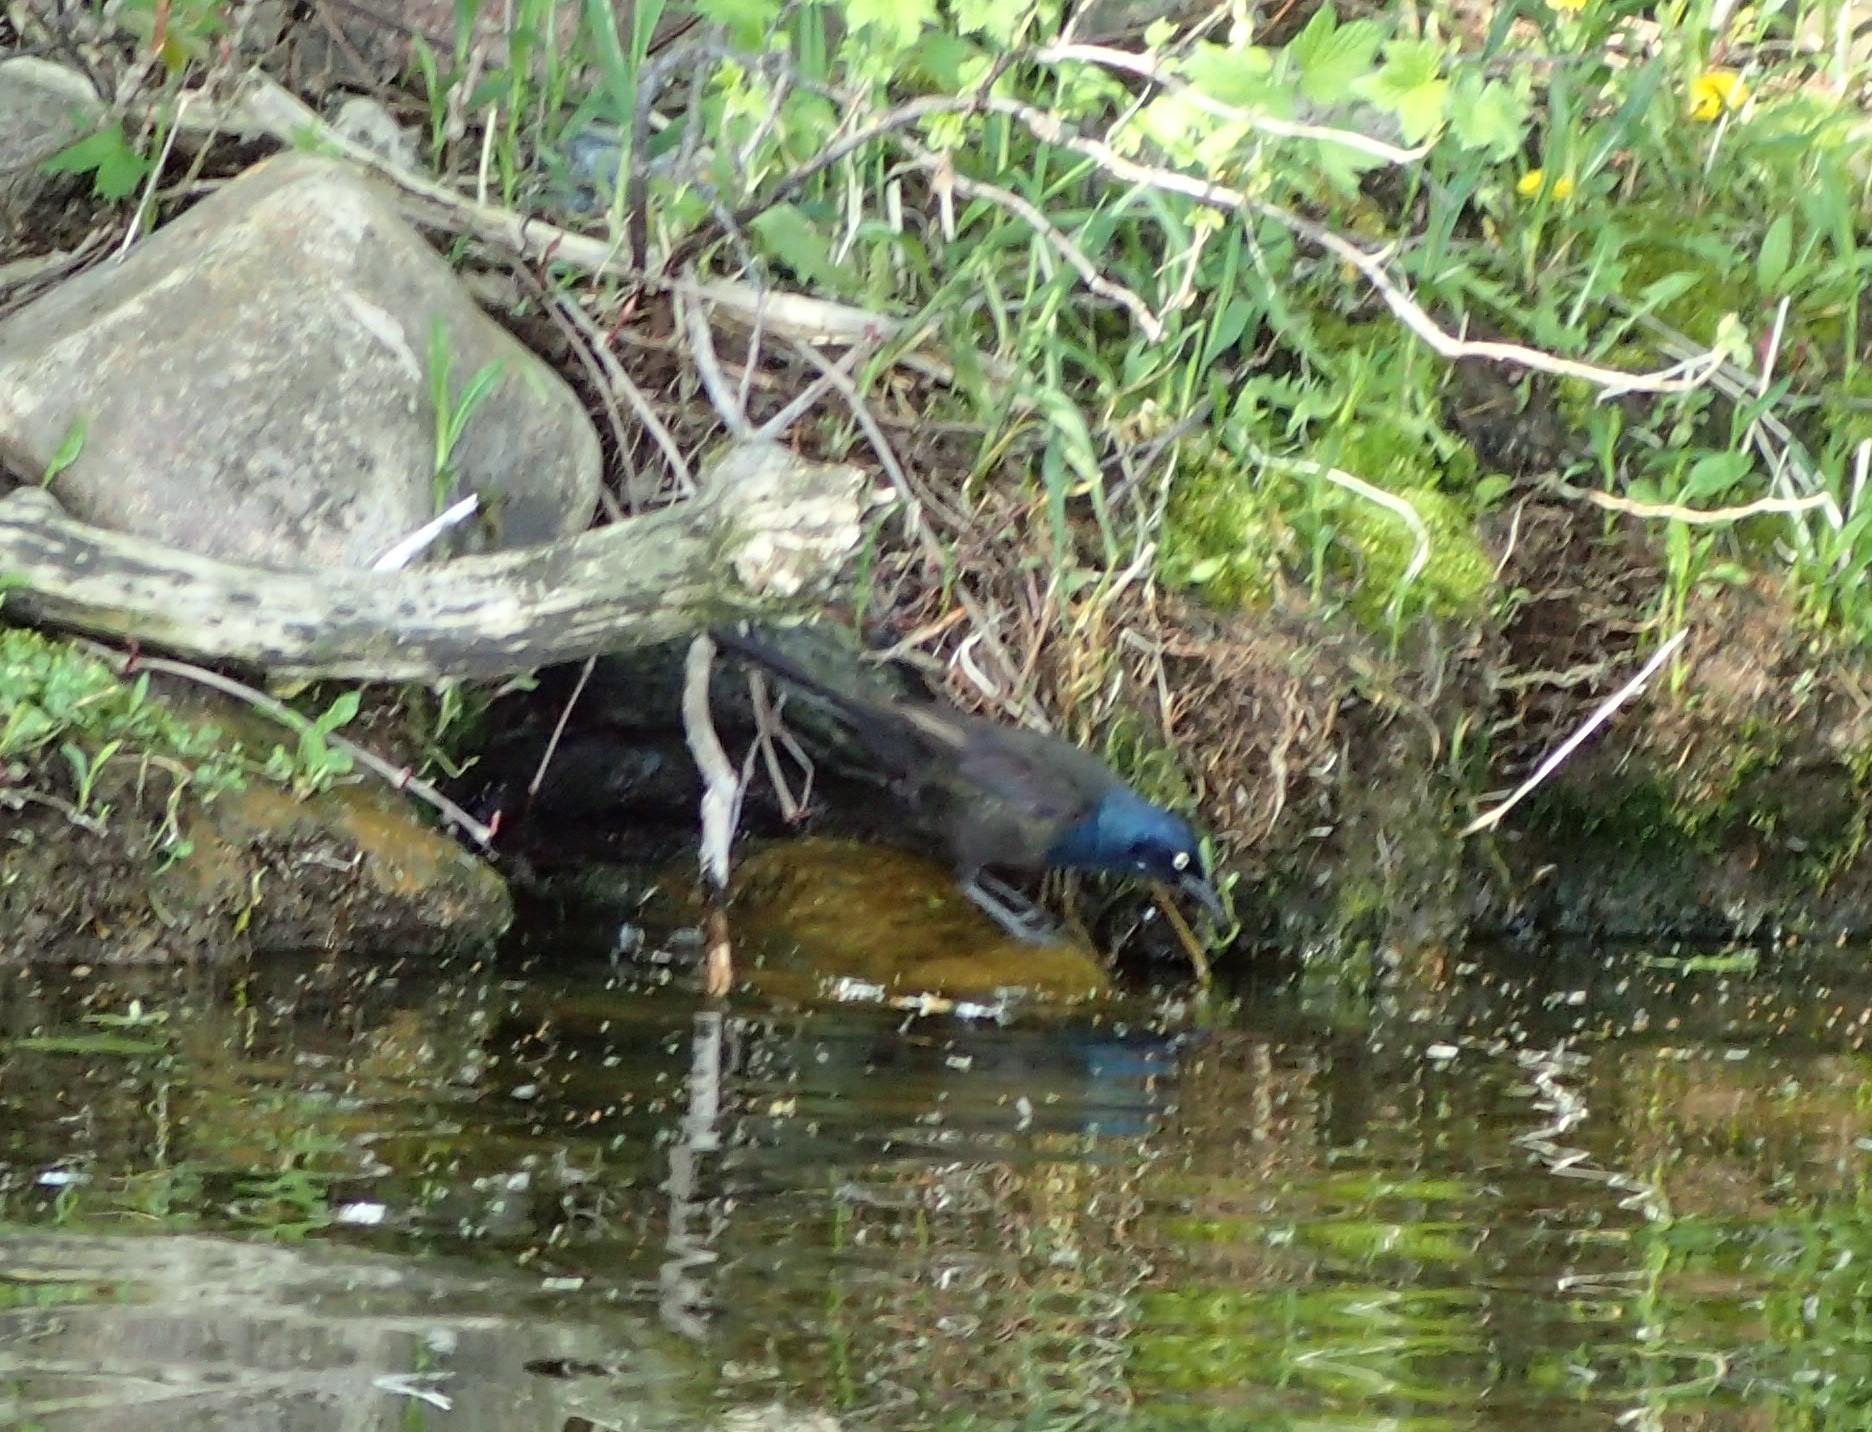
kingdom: Animalia
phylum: Chordata
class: Aves
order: Passeriformes
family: Icteridae
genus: Quiscalus
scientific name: Quiscalus quiscula
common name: Common grackle
